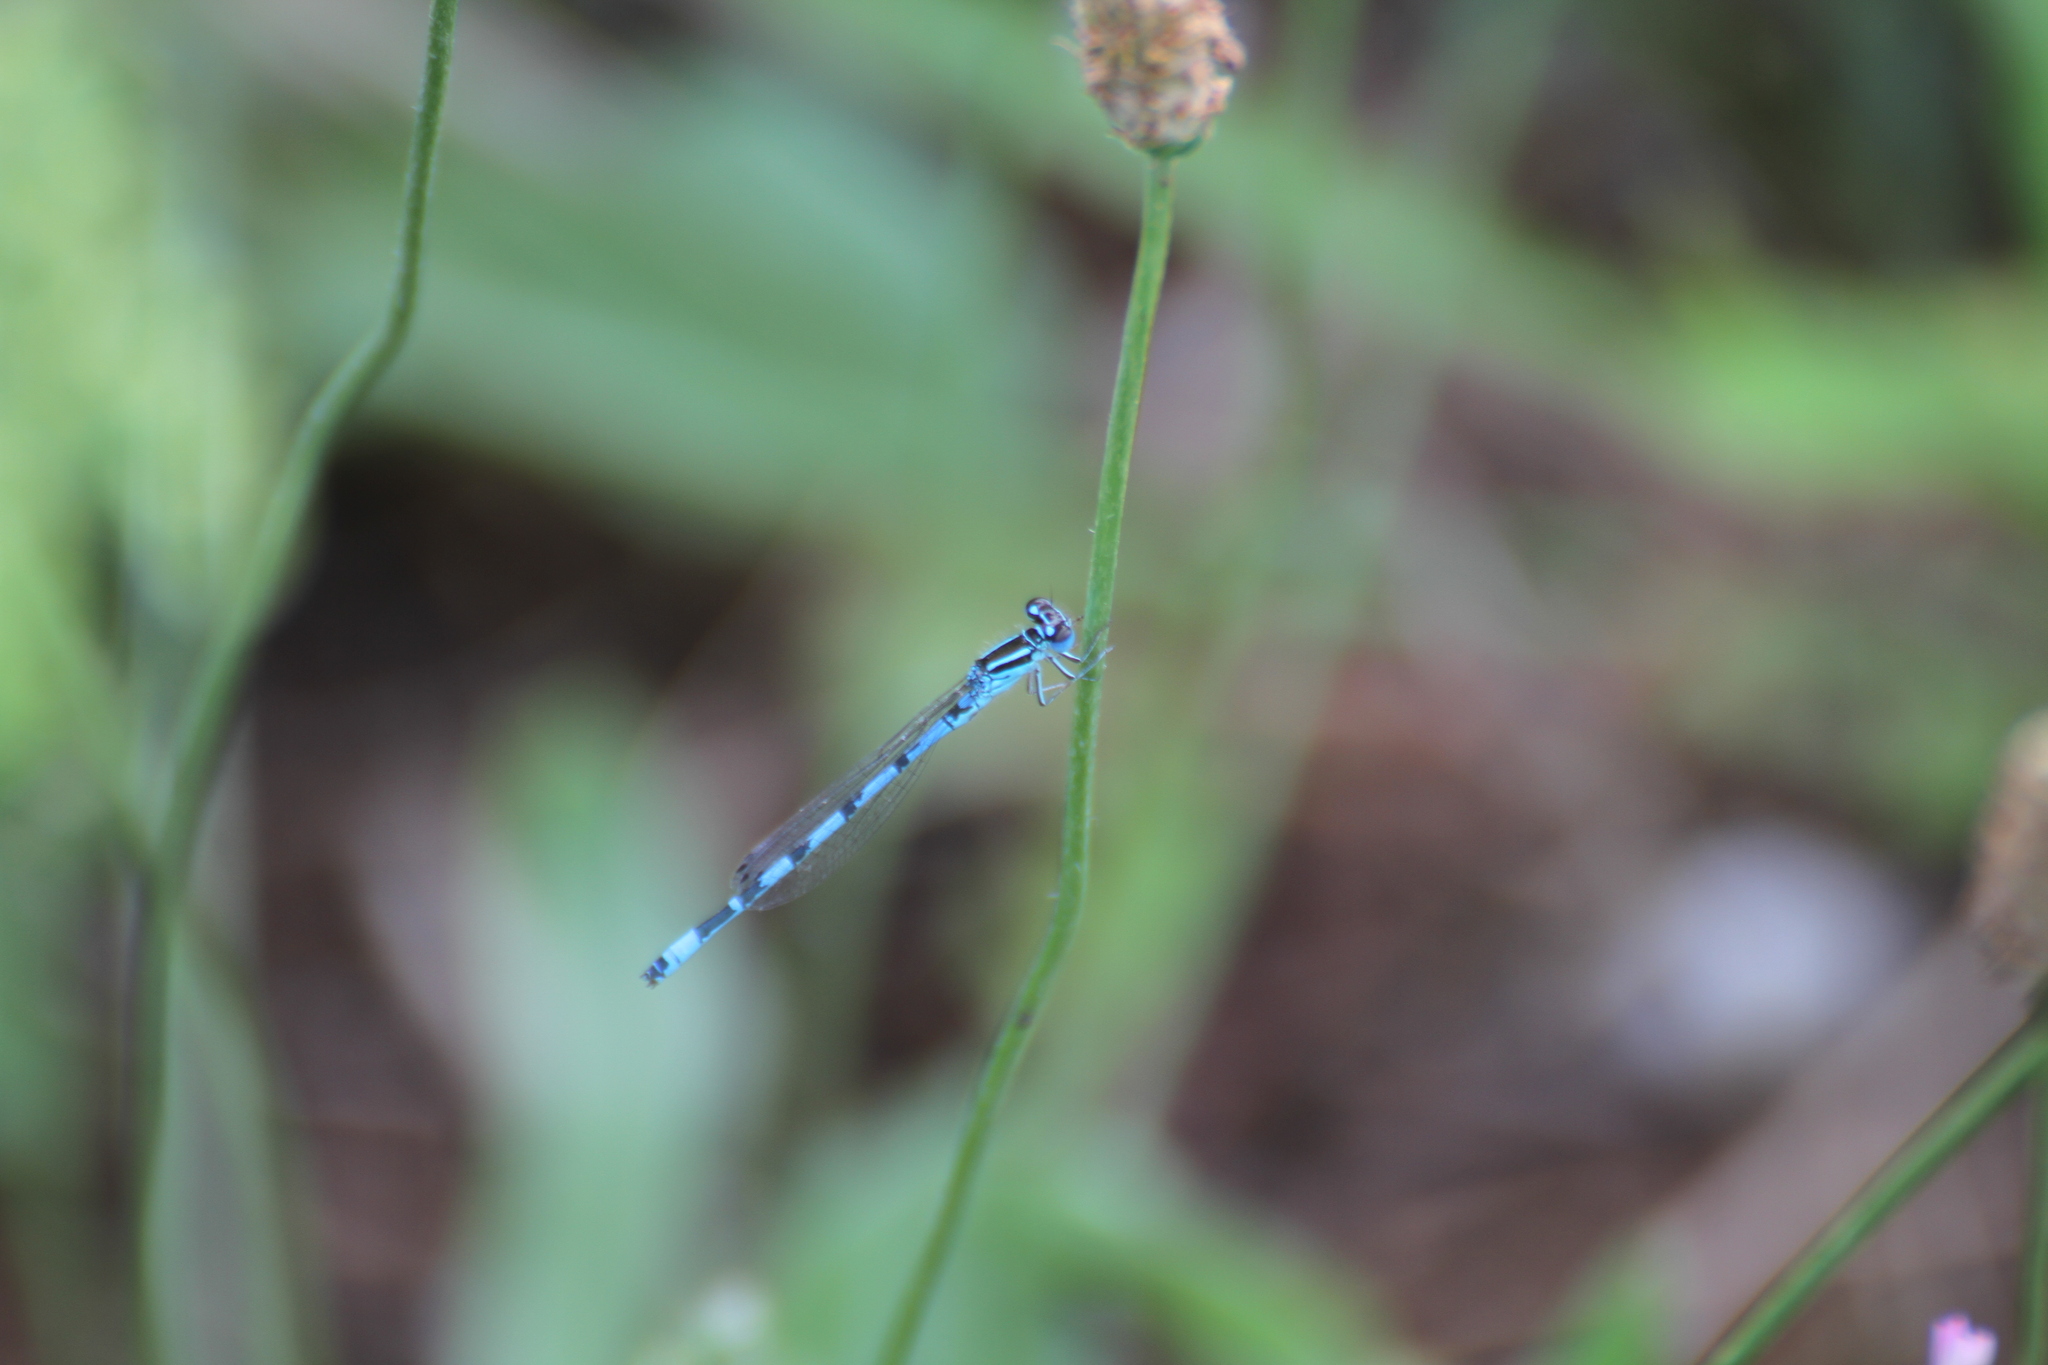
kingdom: Animalia
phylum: Arthropoda
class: Insecta
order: Odonata
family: Coenagrionidae
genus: Coenagrion
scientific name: Coenagrion mercuriale
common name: Southern damselfly
